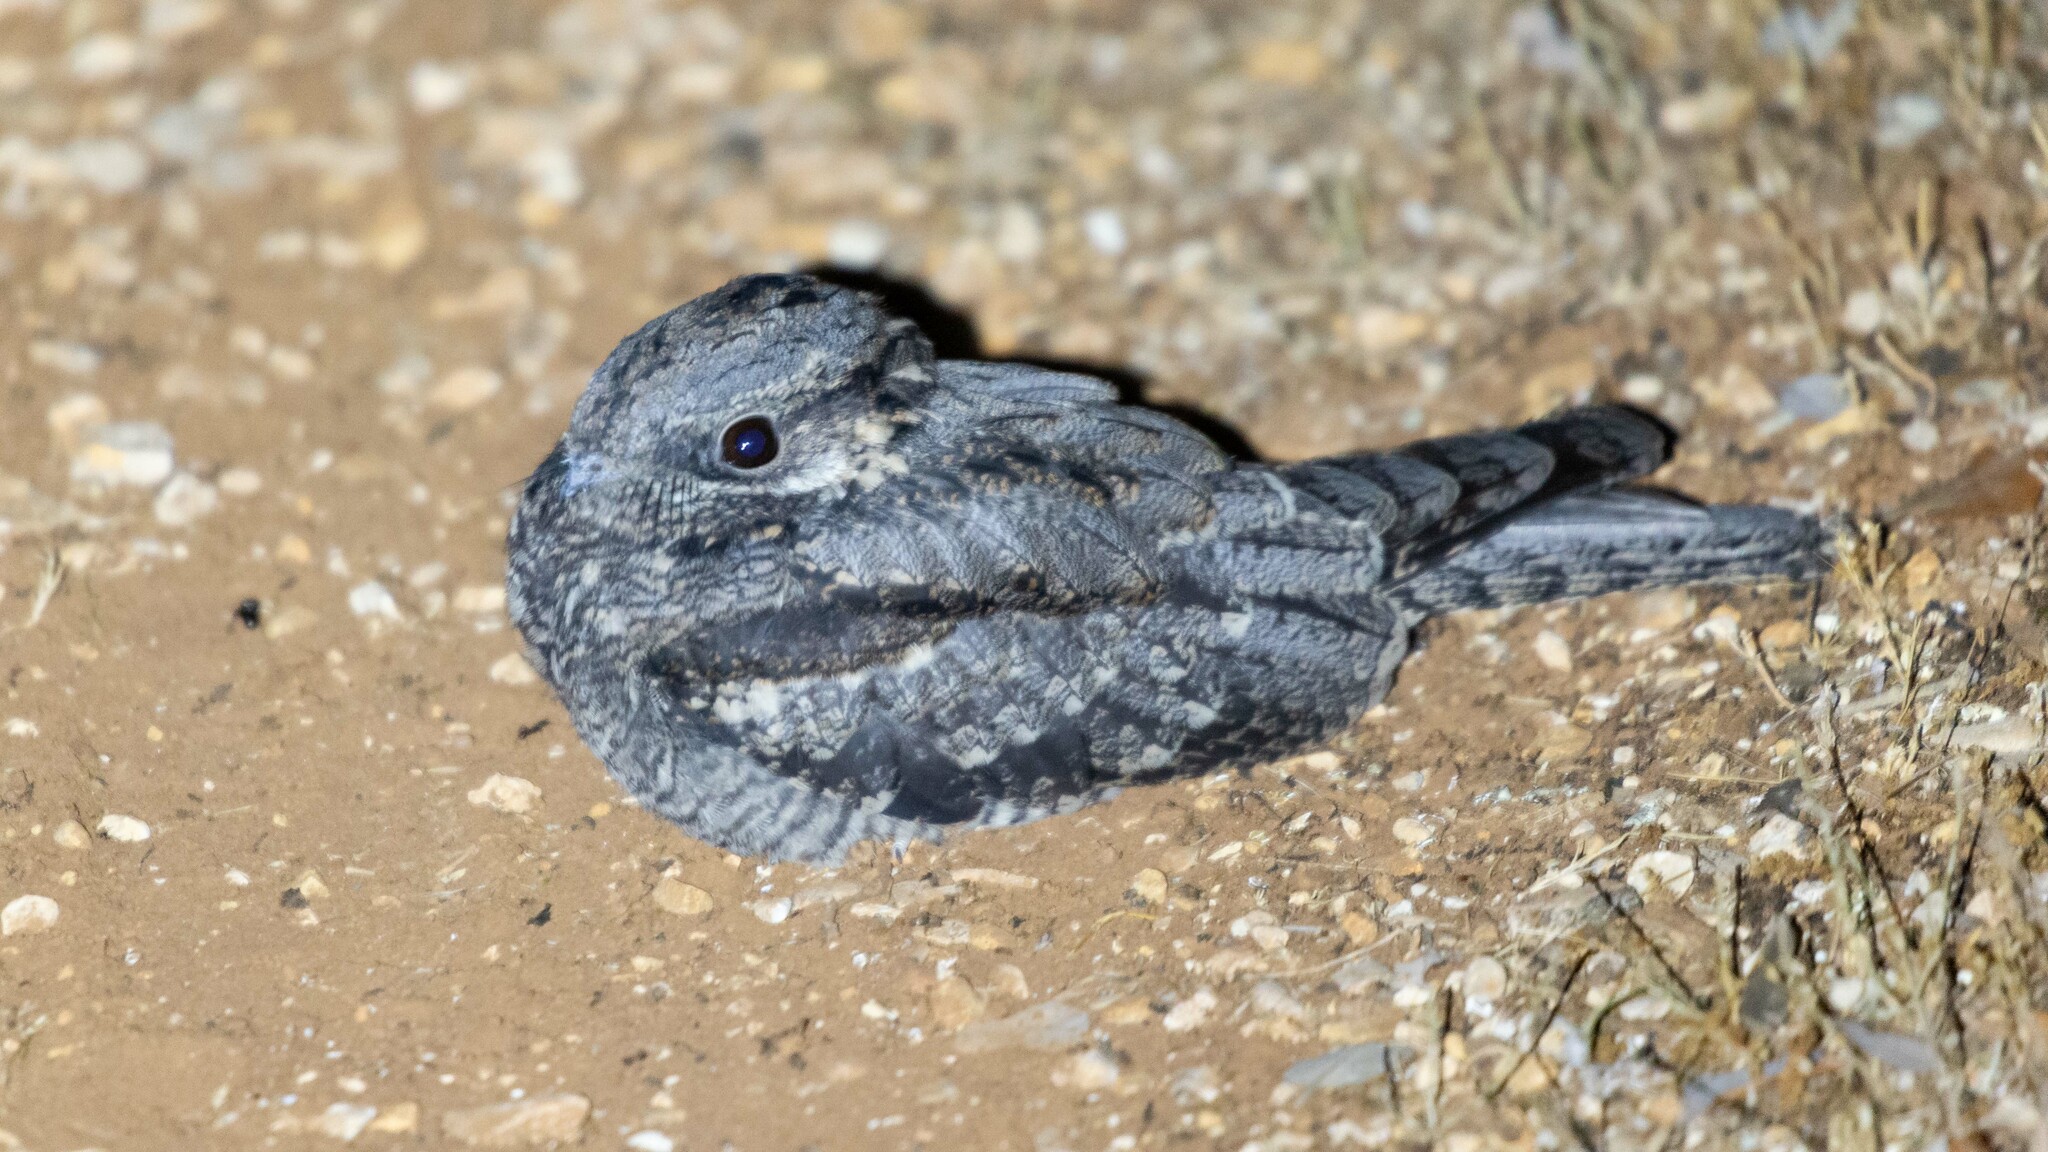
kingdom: Animalia
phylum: Chordata
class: Aves
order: Caprimulgiformes
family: Caprimulgidae
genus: Caprimulgus
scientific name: Caprimulgus europaeus
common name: European nightjar
